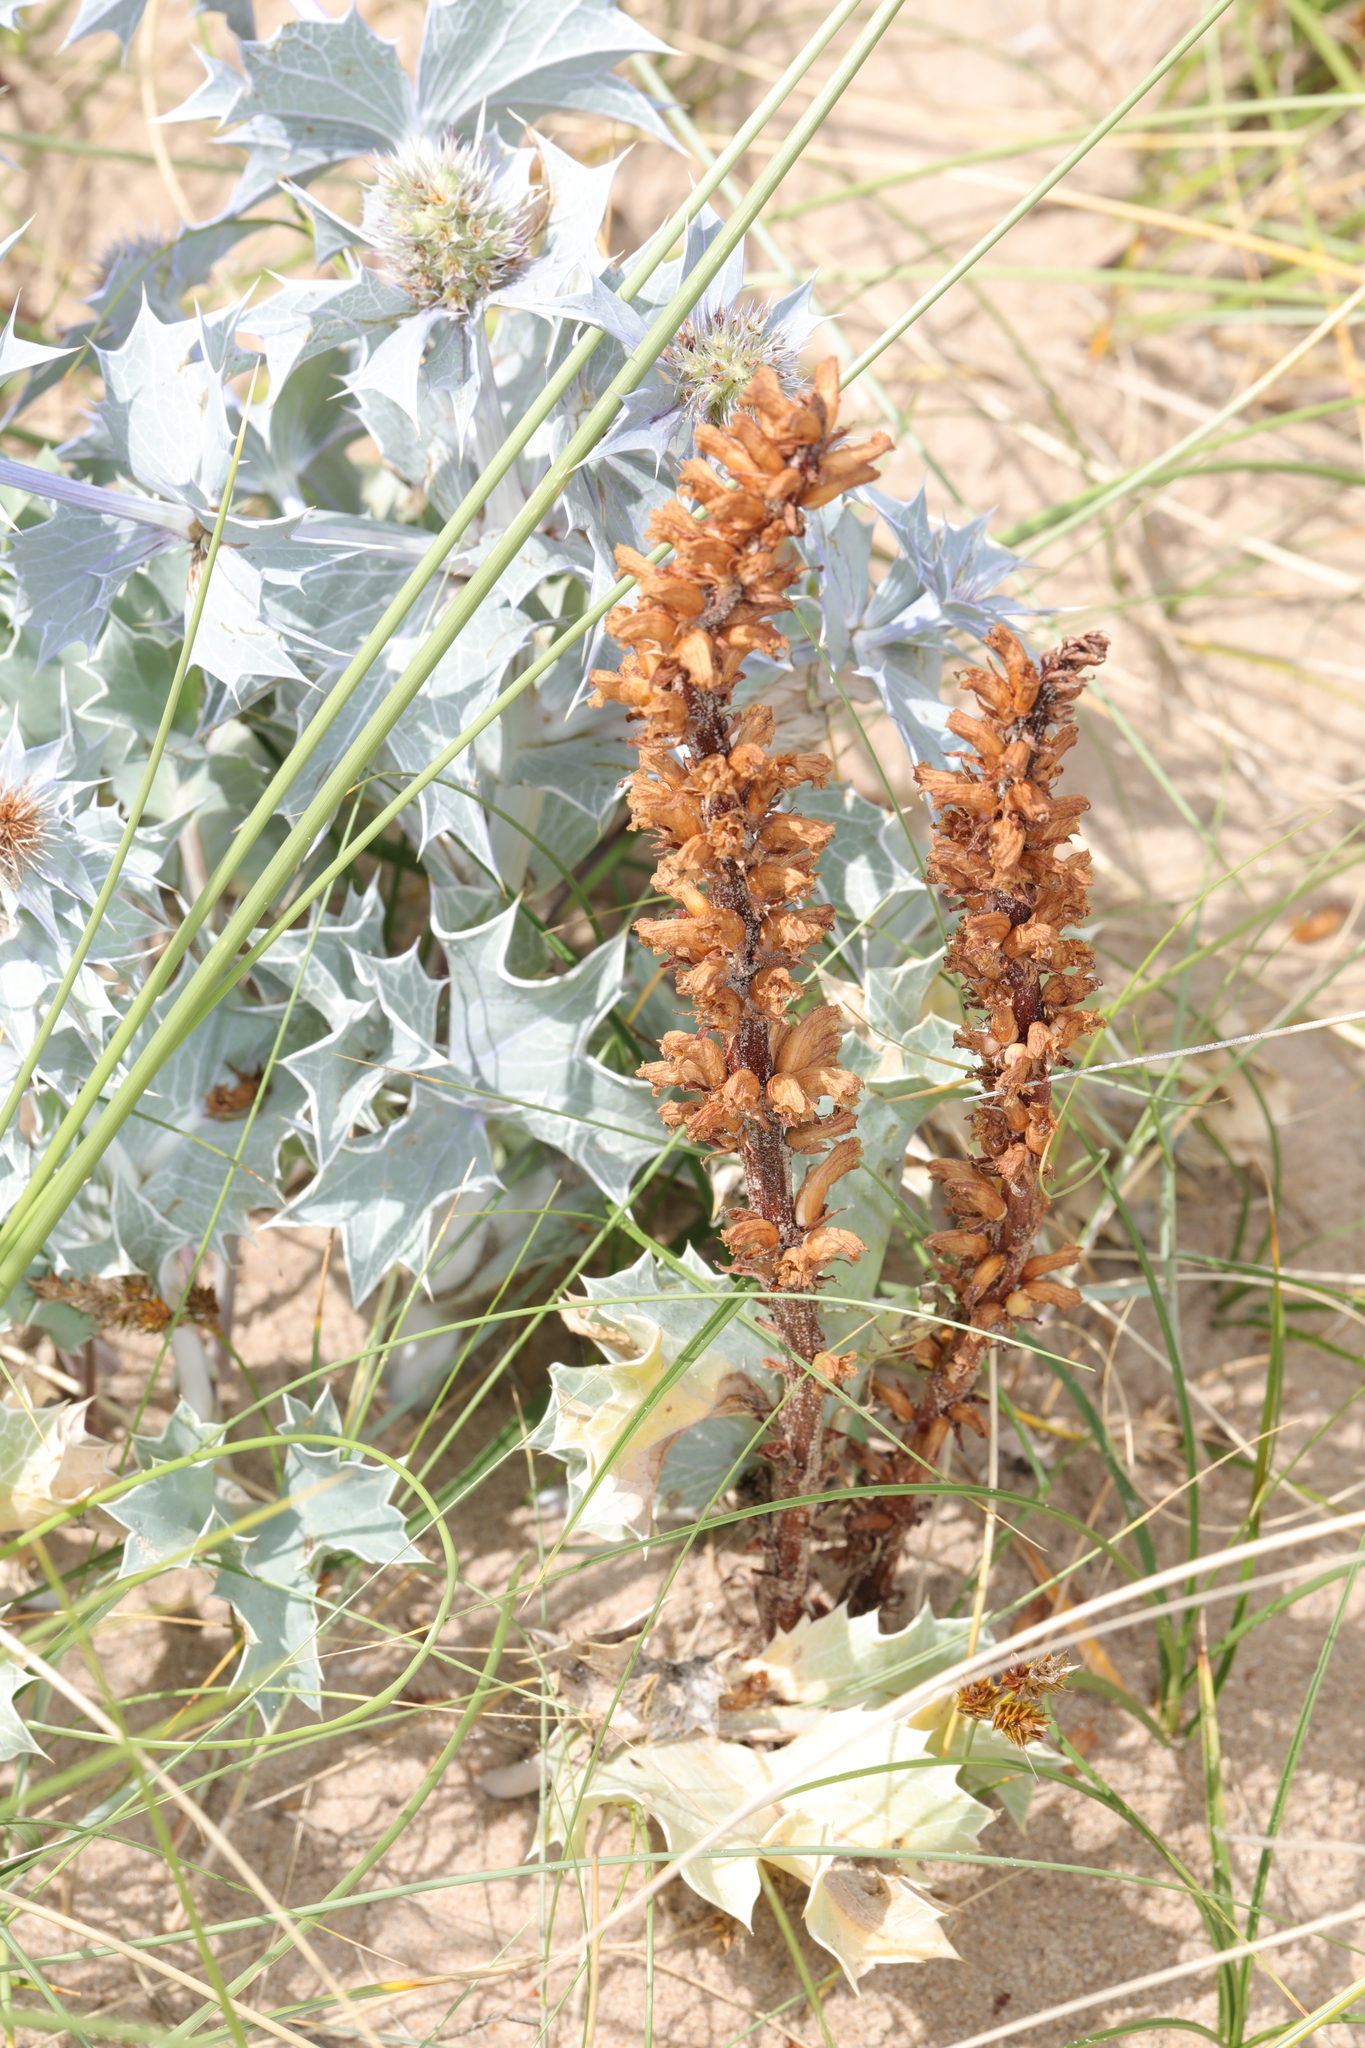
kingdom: Plantae
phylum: Tracheophyta
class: Magnoliopsida
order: Lamiales
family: Orobanchaceae
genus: Orobanche
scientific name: Orobanche minor
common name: Common broomrape
